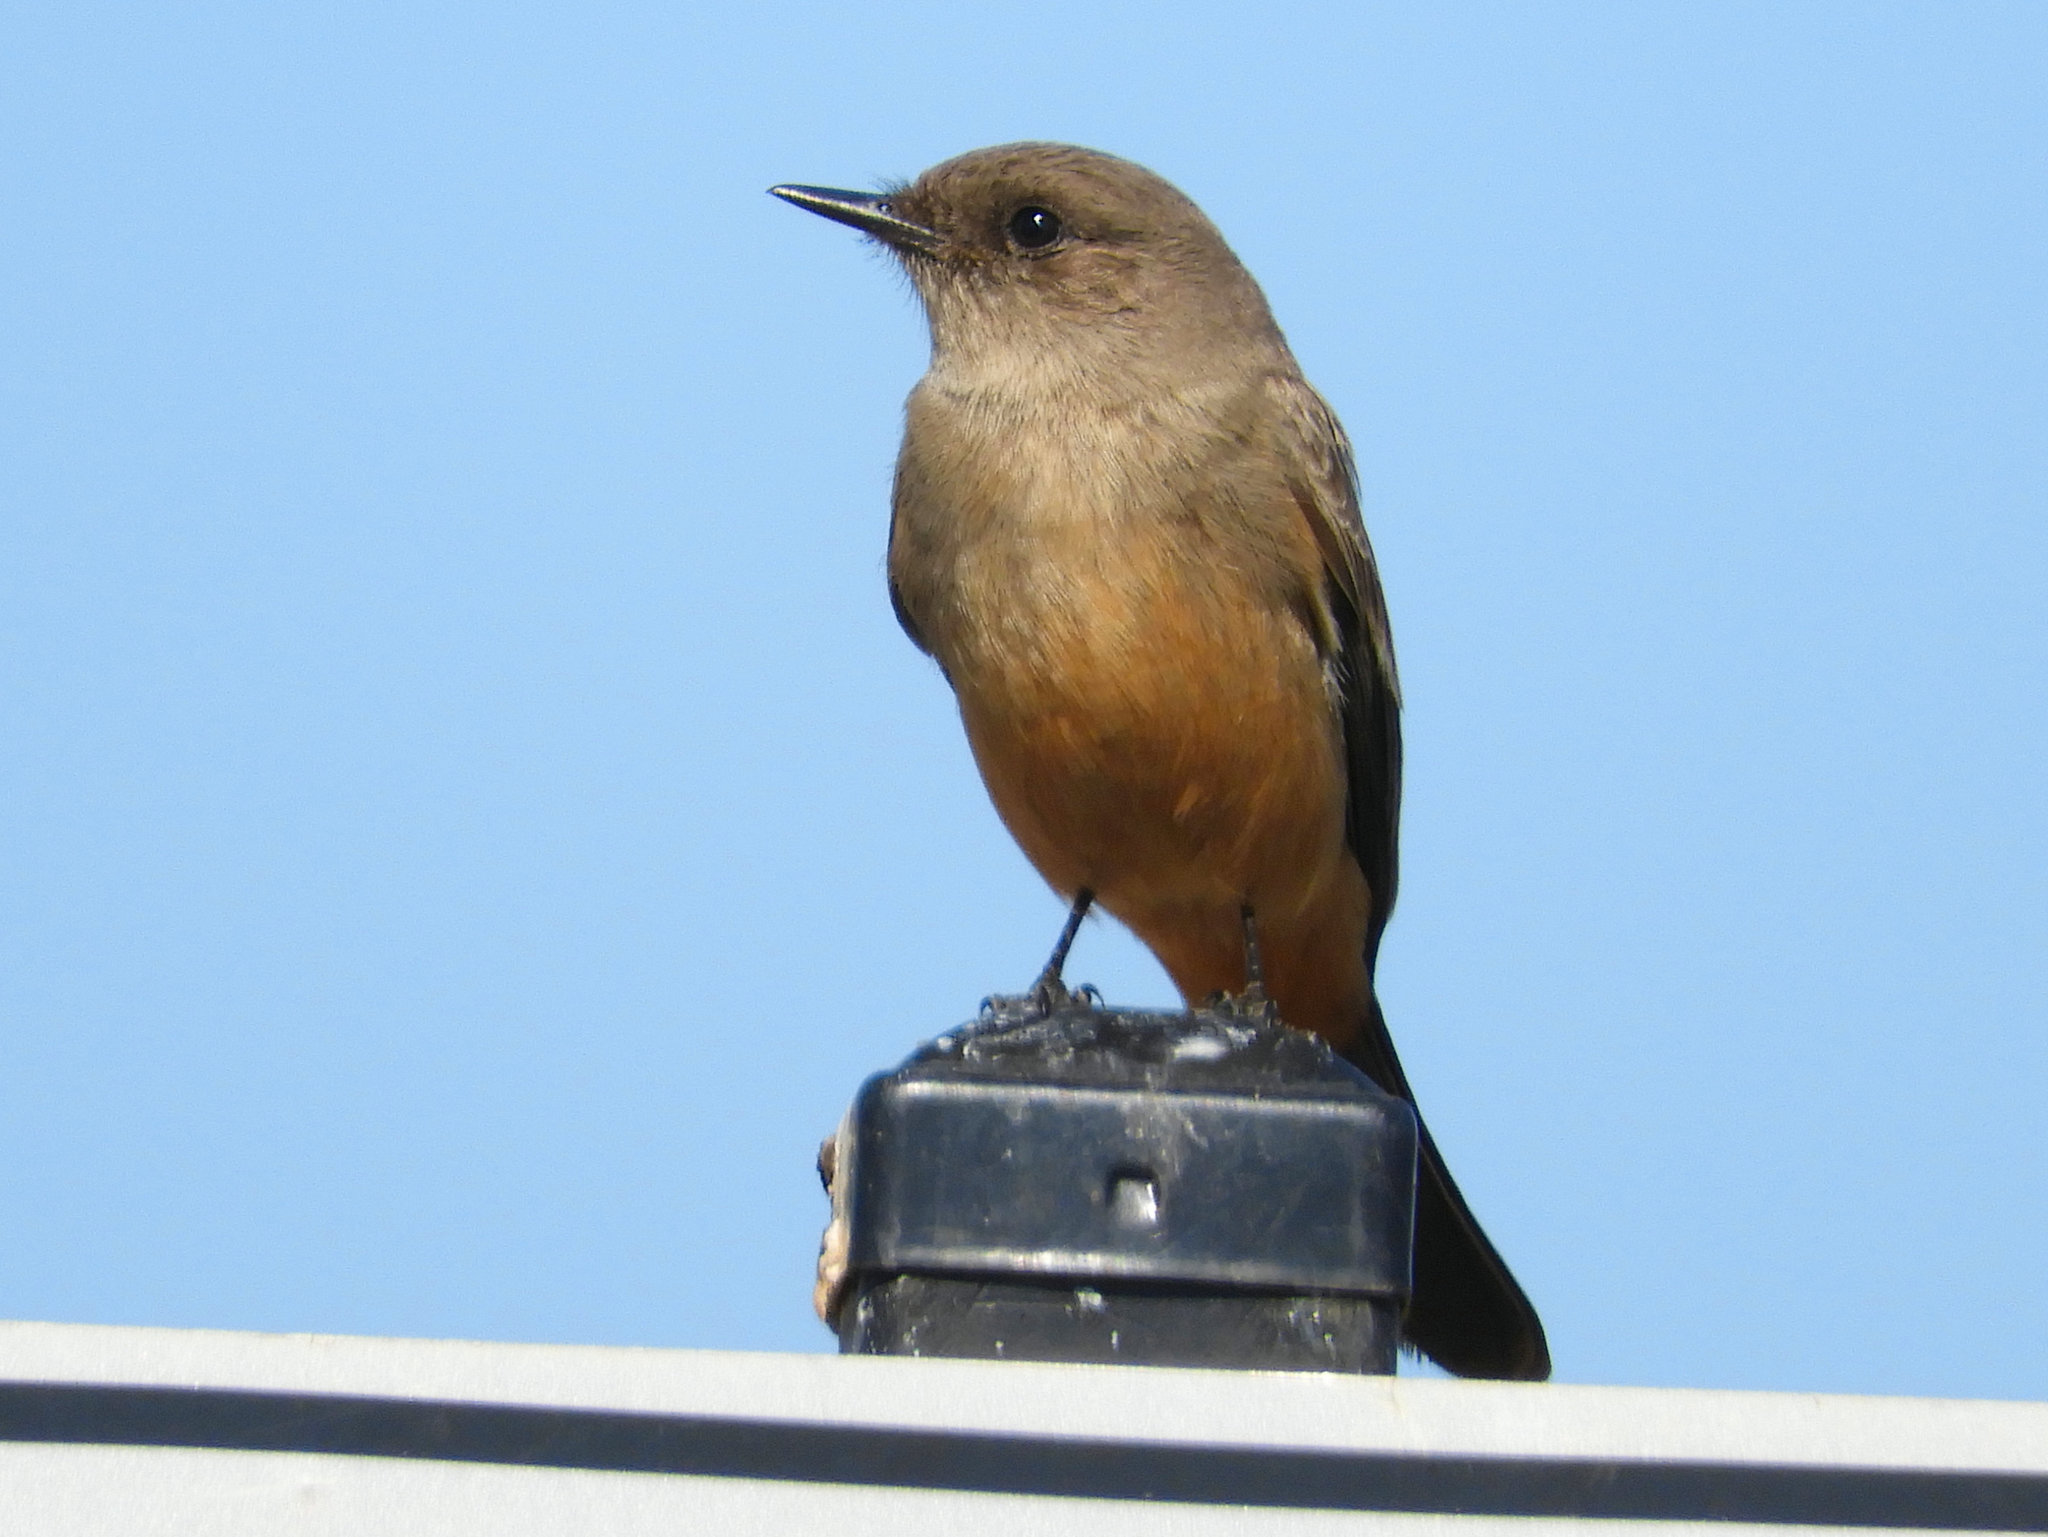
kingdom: Animalia
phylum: Chordata
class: Aves
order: Passeriformes
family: Tyrannidae
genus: Sayornis
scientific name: Sayornis saya
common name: Say's phoebe
